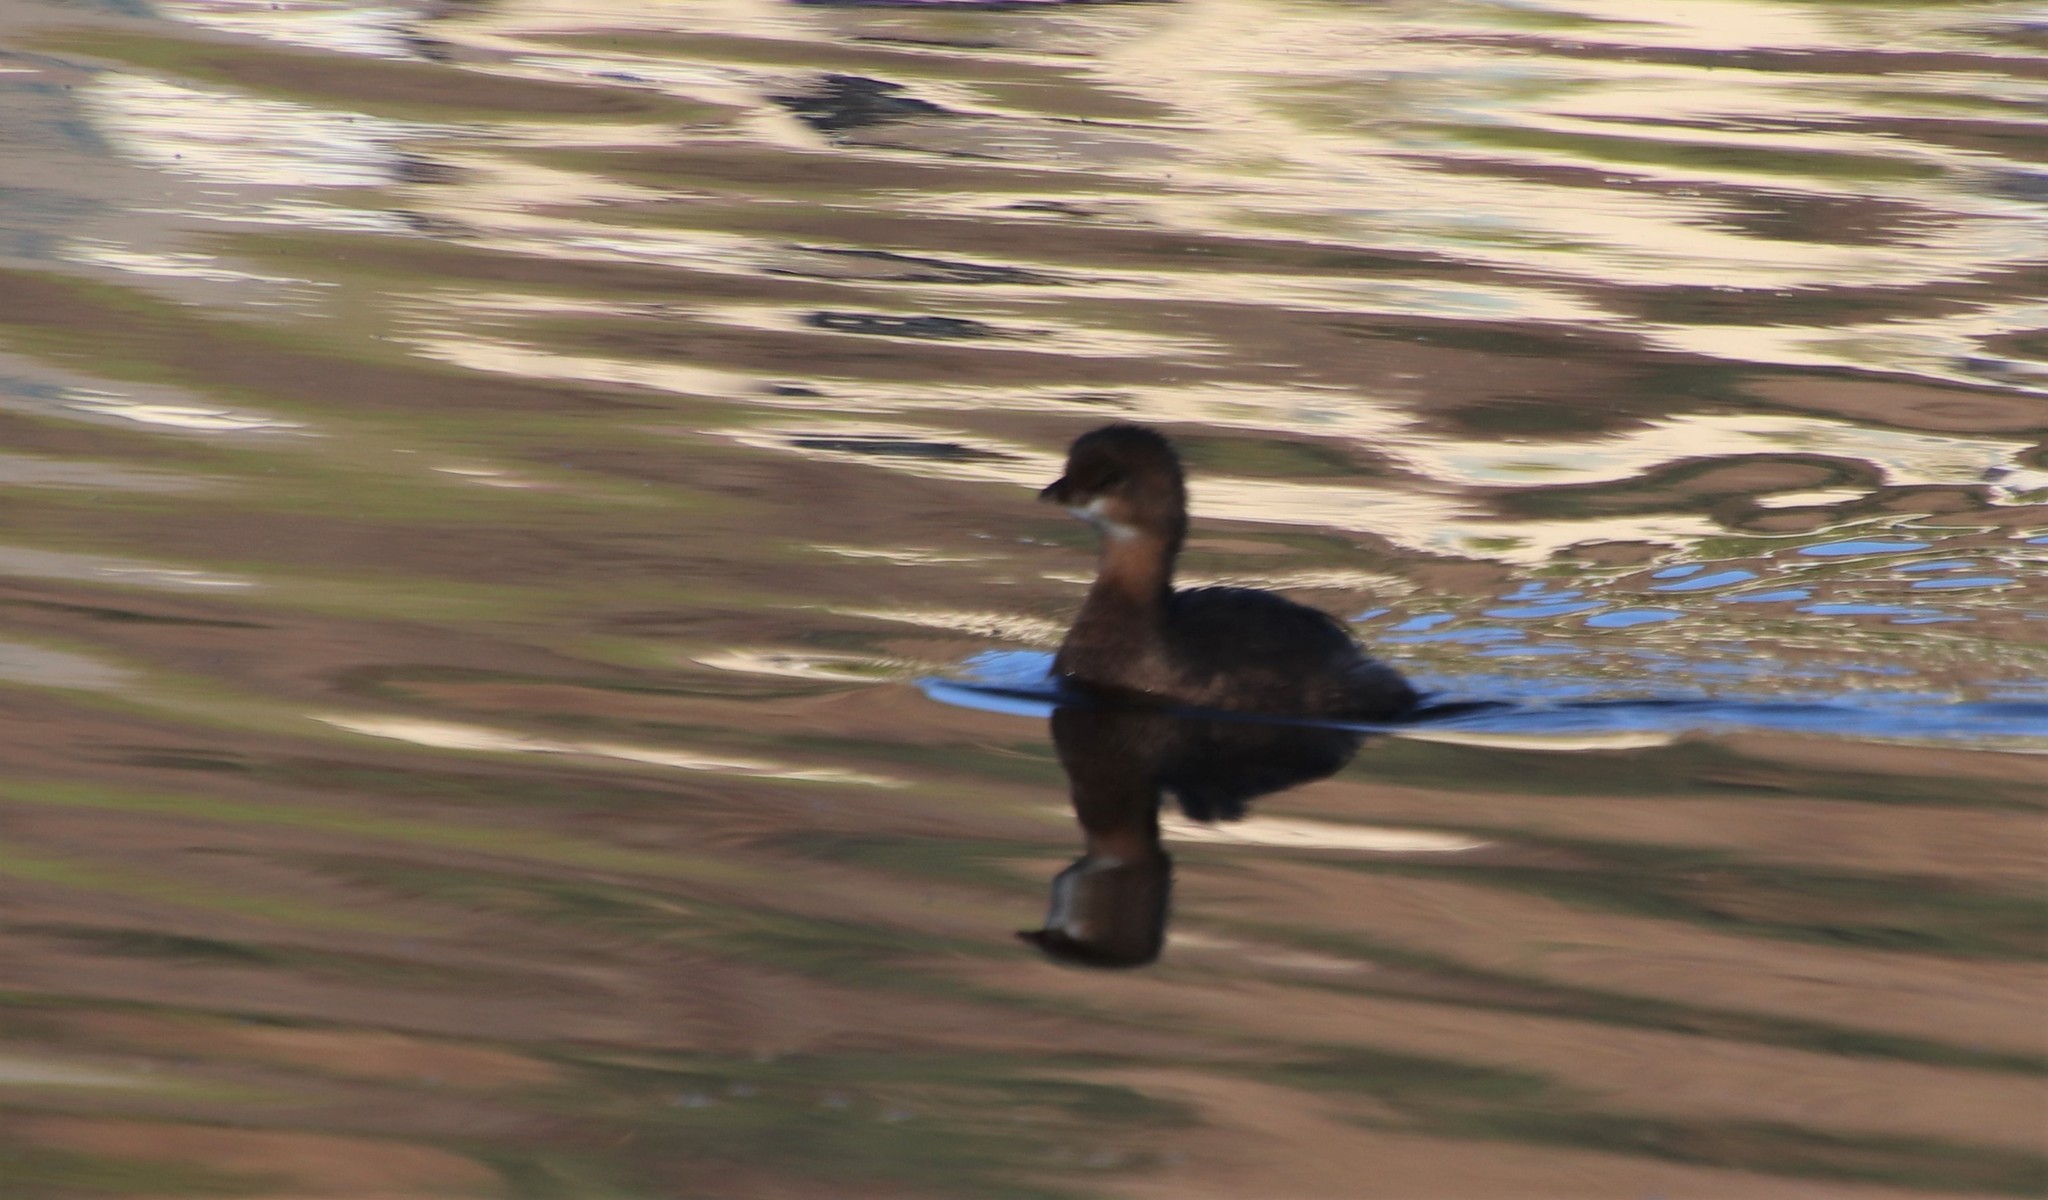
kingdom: Animalia
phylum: Chordata
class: Aves
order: Podicipediformes
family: Podicipedidae
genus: Podilymbus
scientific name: Podilymbus podiceps
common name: Pied-billed grebe
